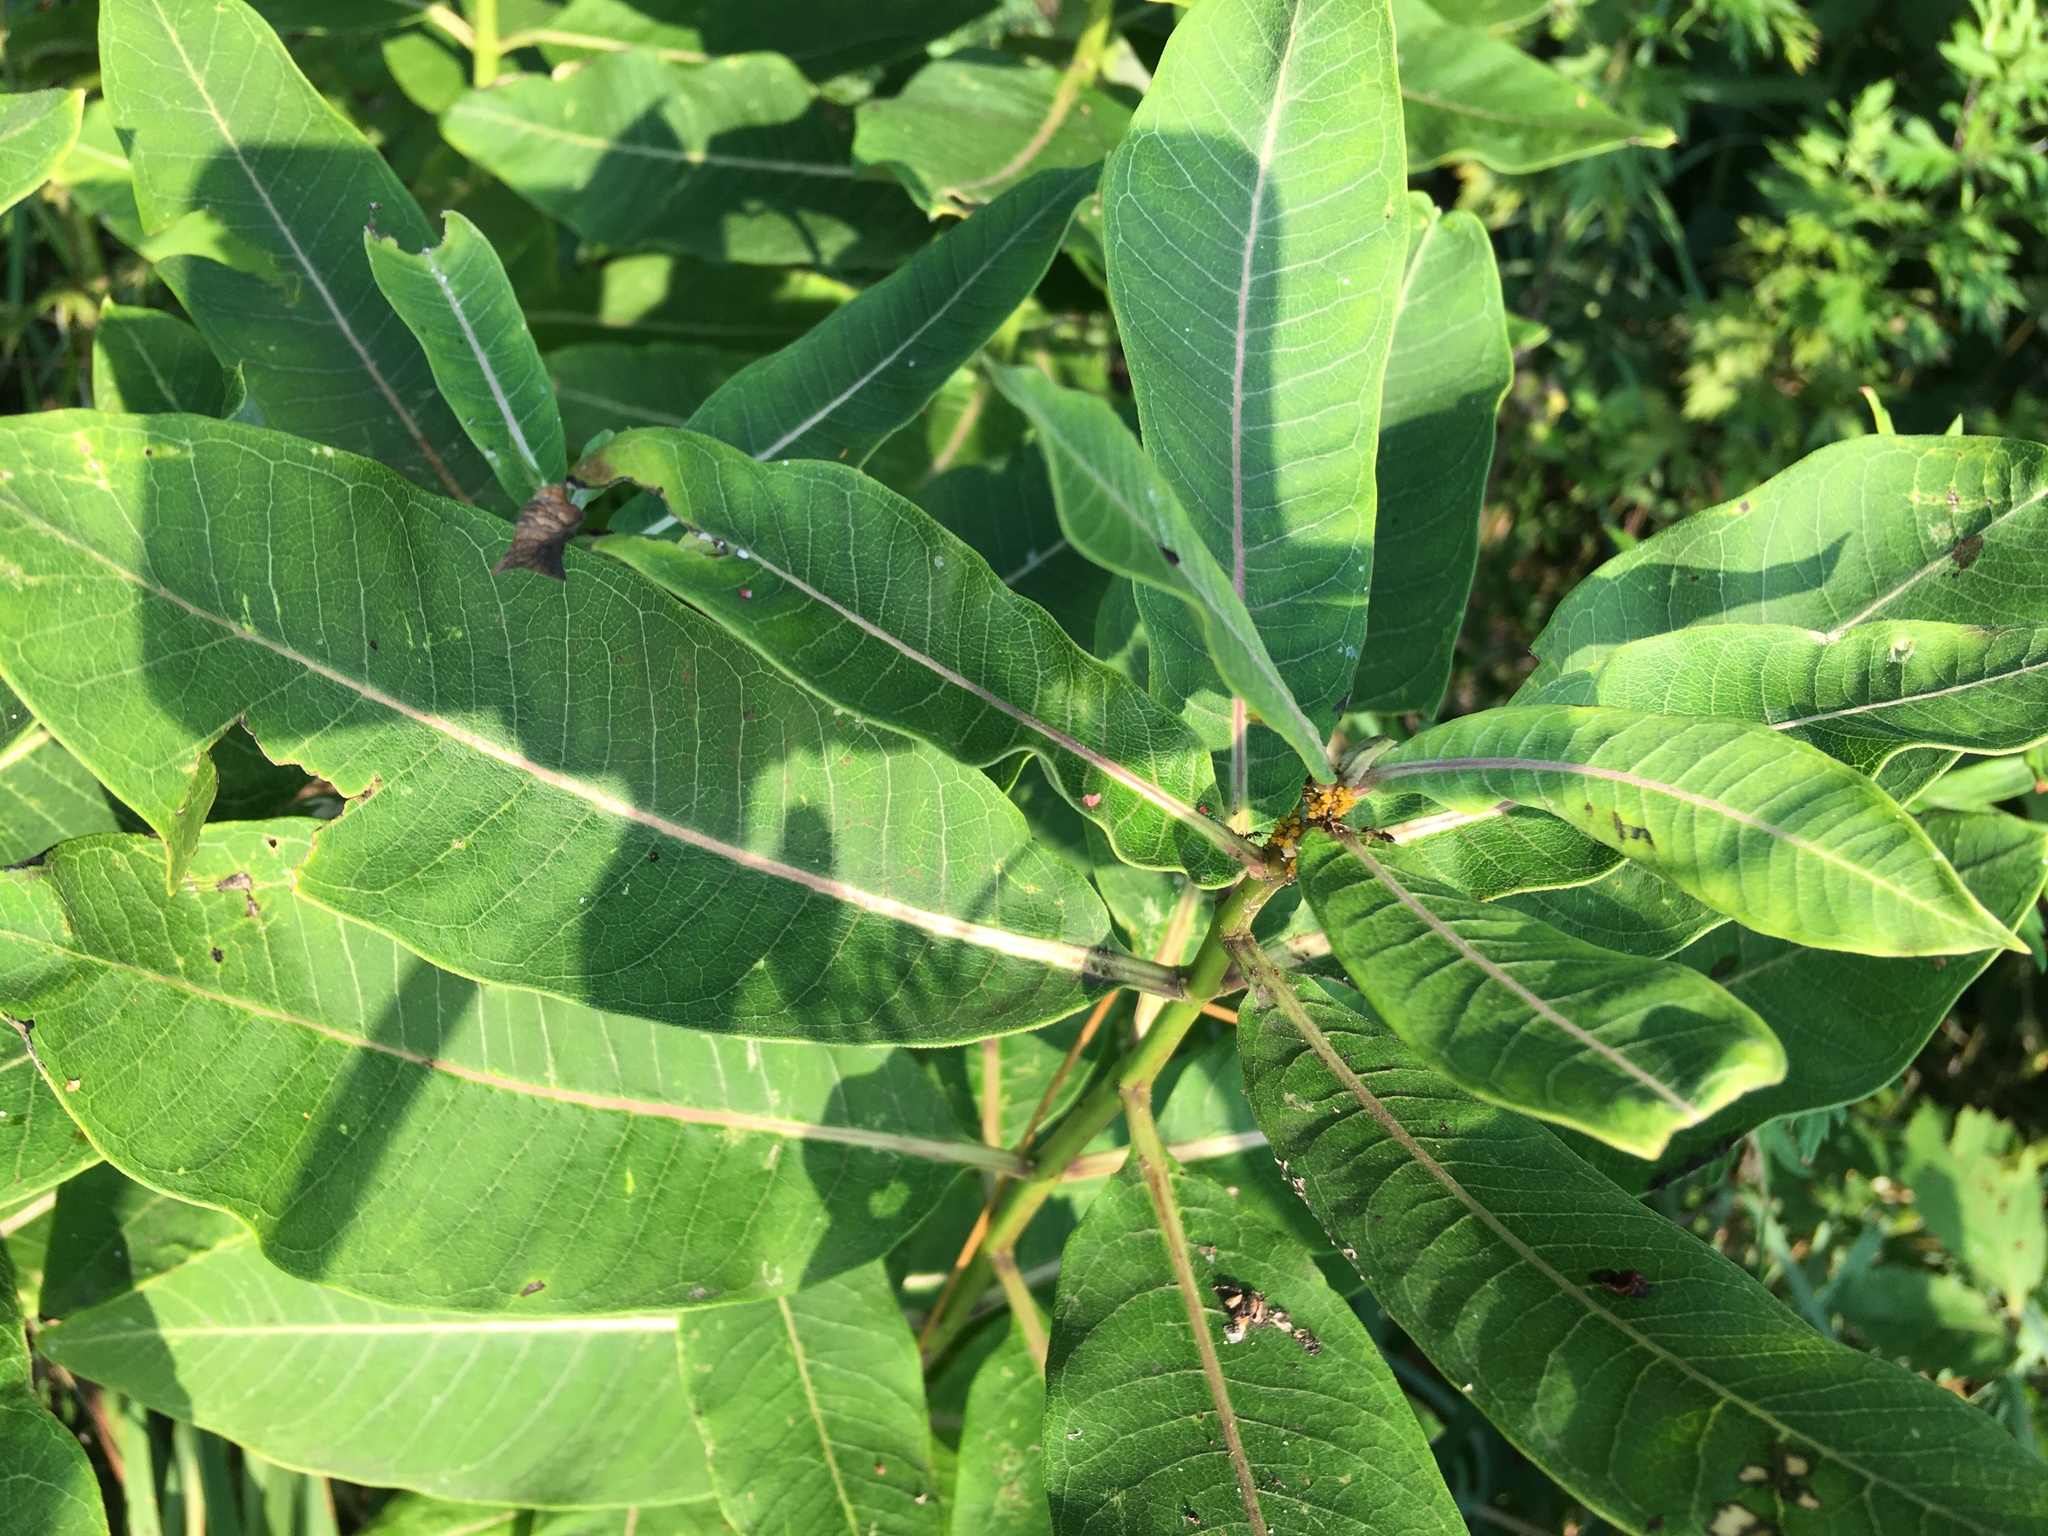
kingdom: Plantae
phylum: Tracheophyta
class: Magnoliopsida
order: Gentianales
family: Apocynaceae
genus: Asclepias
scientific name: Asclepias syriaca
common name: Common milkweed
